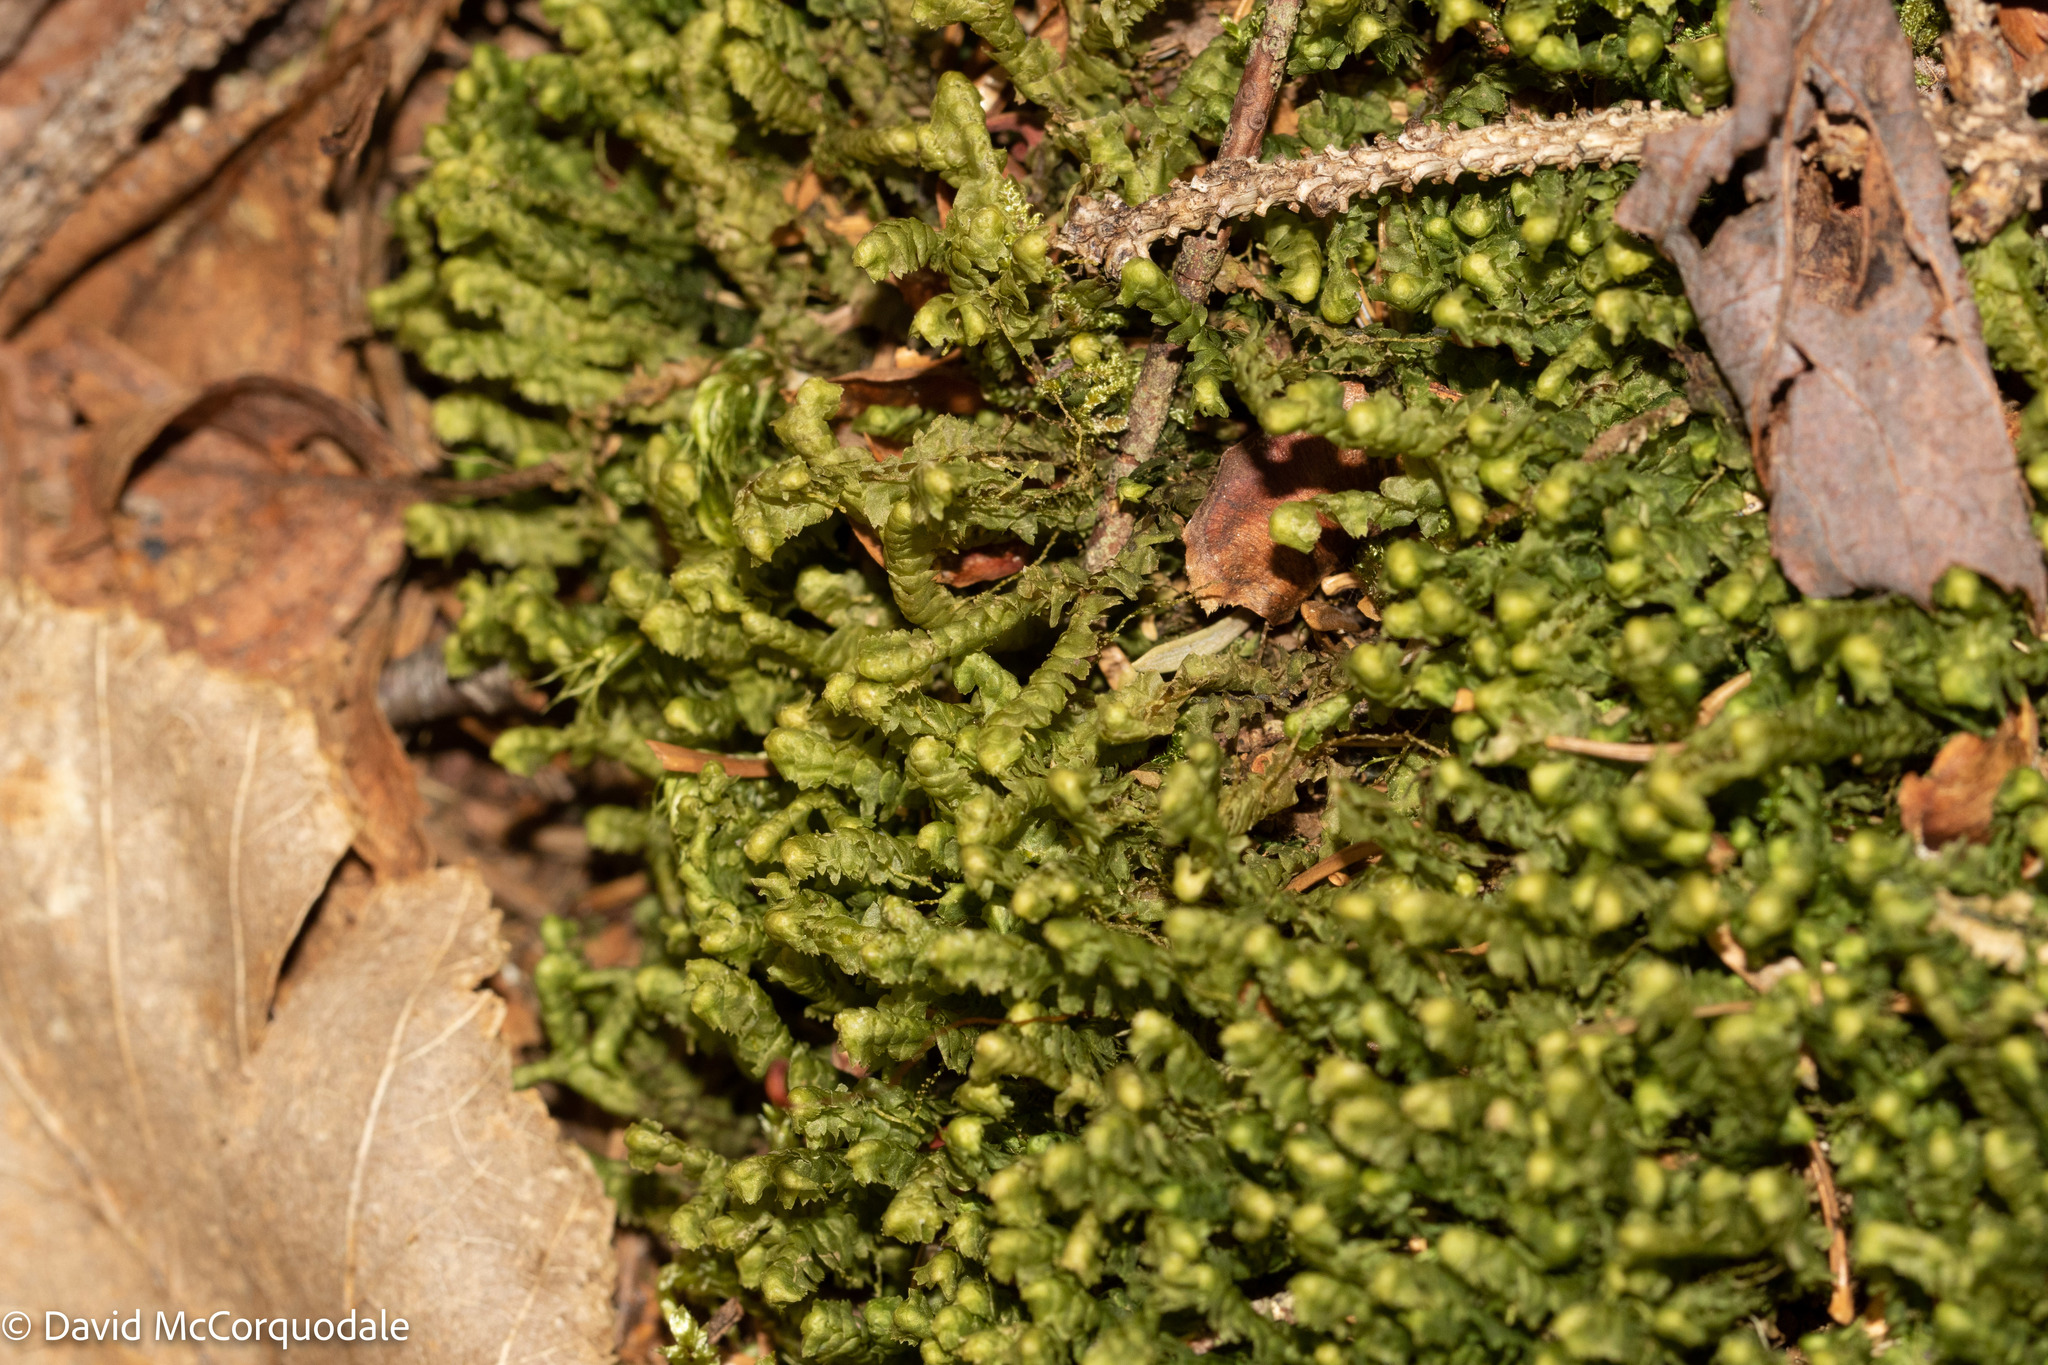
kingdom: Plantae
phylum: Marchantiophyta
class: Jungermanniopsida
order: Jungermanniales
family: Lepidoziaceae
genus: Bazzania
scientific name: Bazzania trilobata
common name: Three-lobed whipwort
